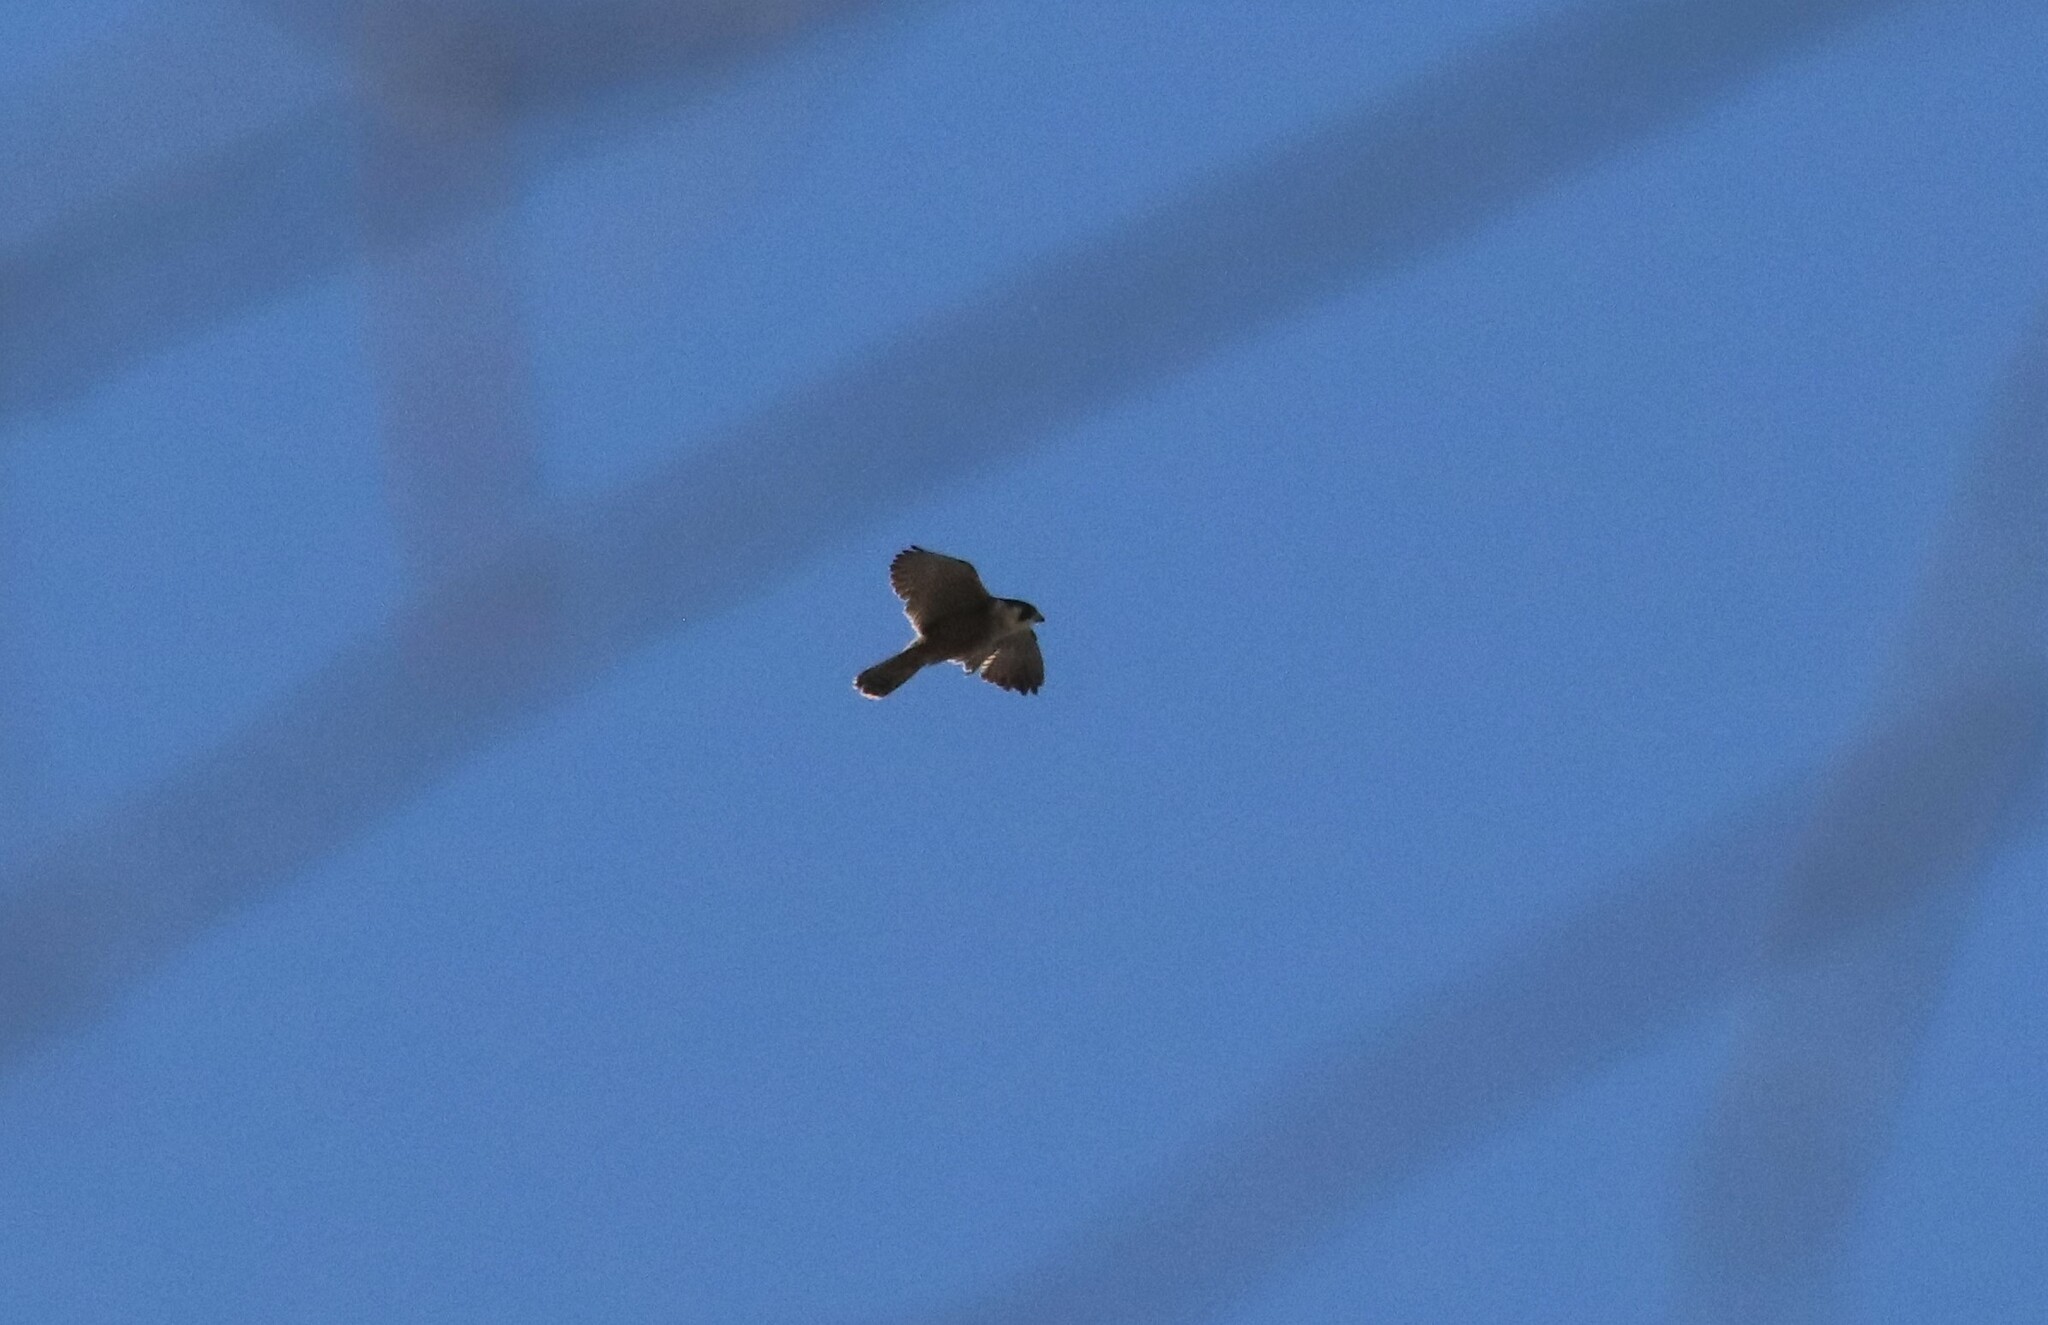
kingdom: Animalia
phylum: Chordata
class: Aves
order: Falconiformes
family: Falconidae
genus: Falco
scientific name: Falco peregrinus
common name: Peregrine falcon
